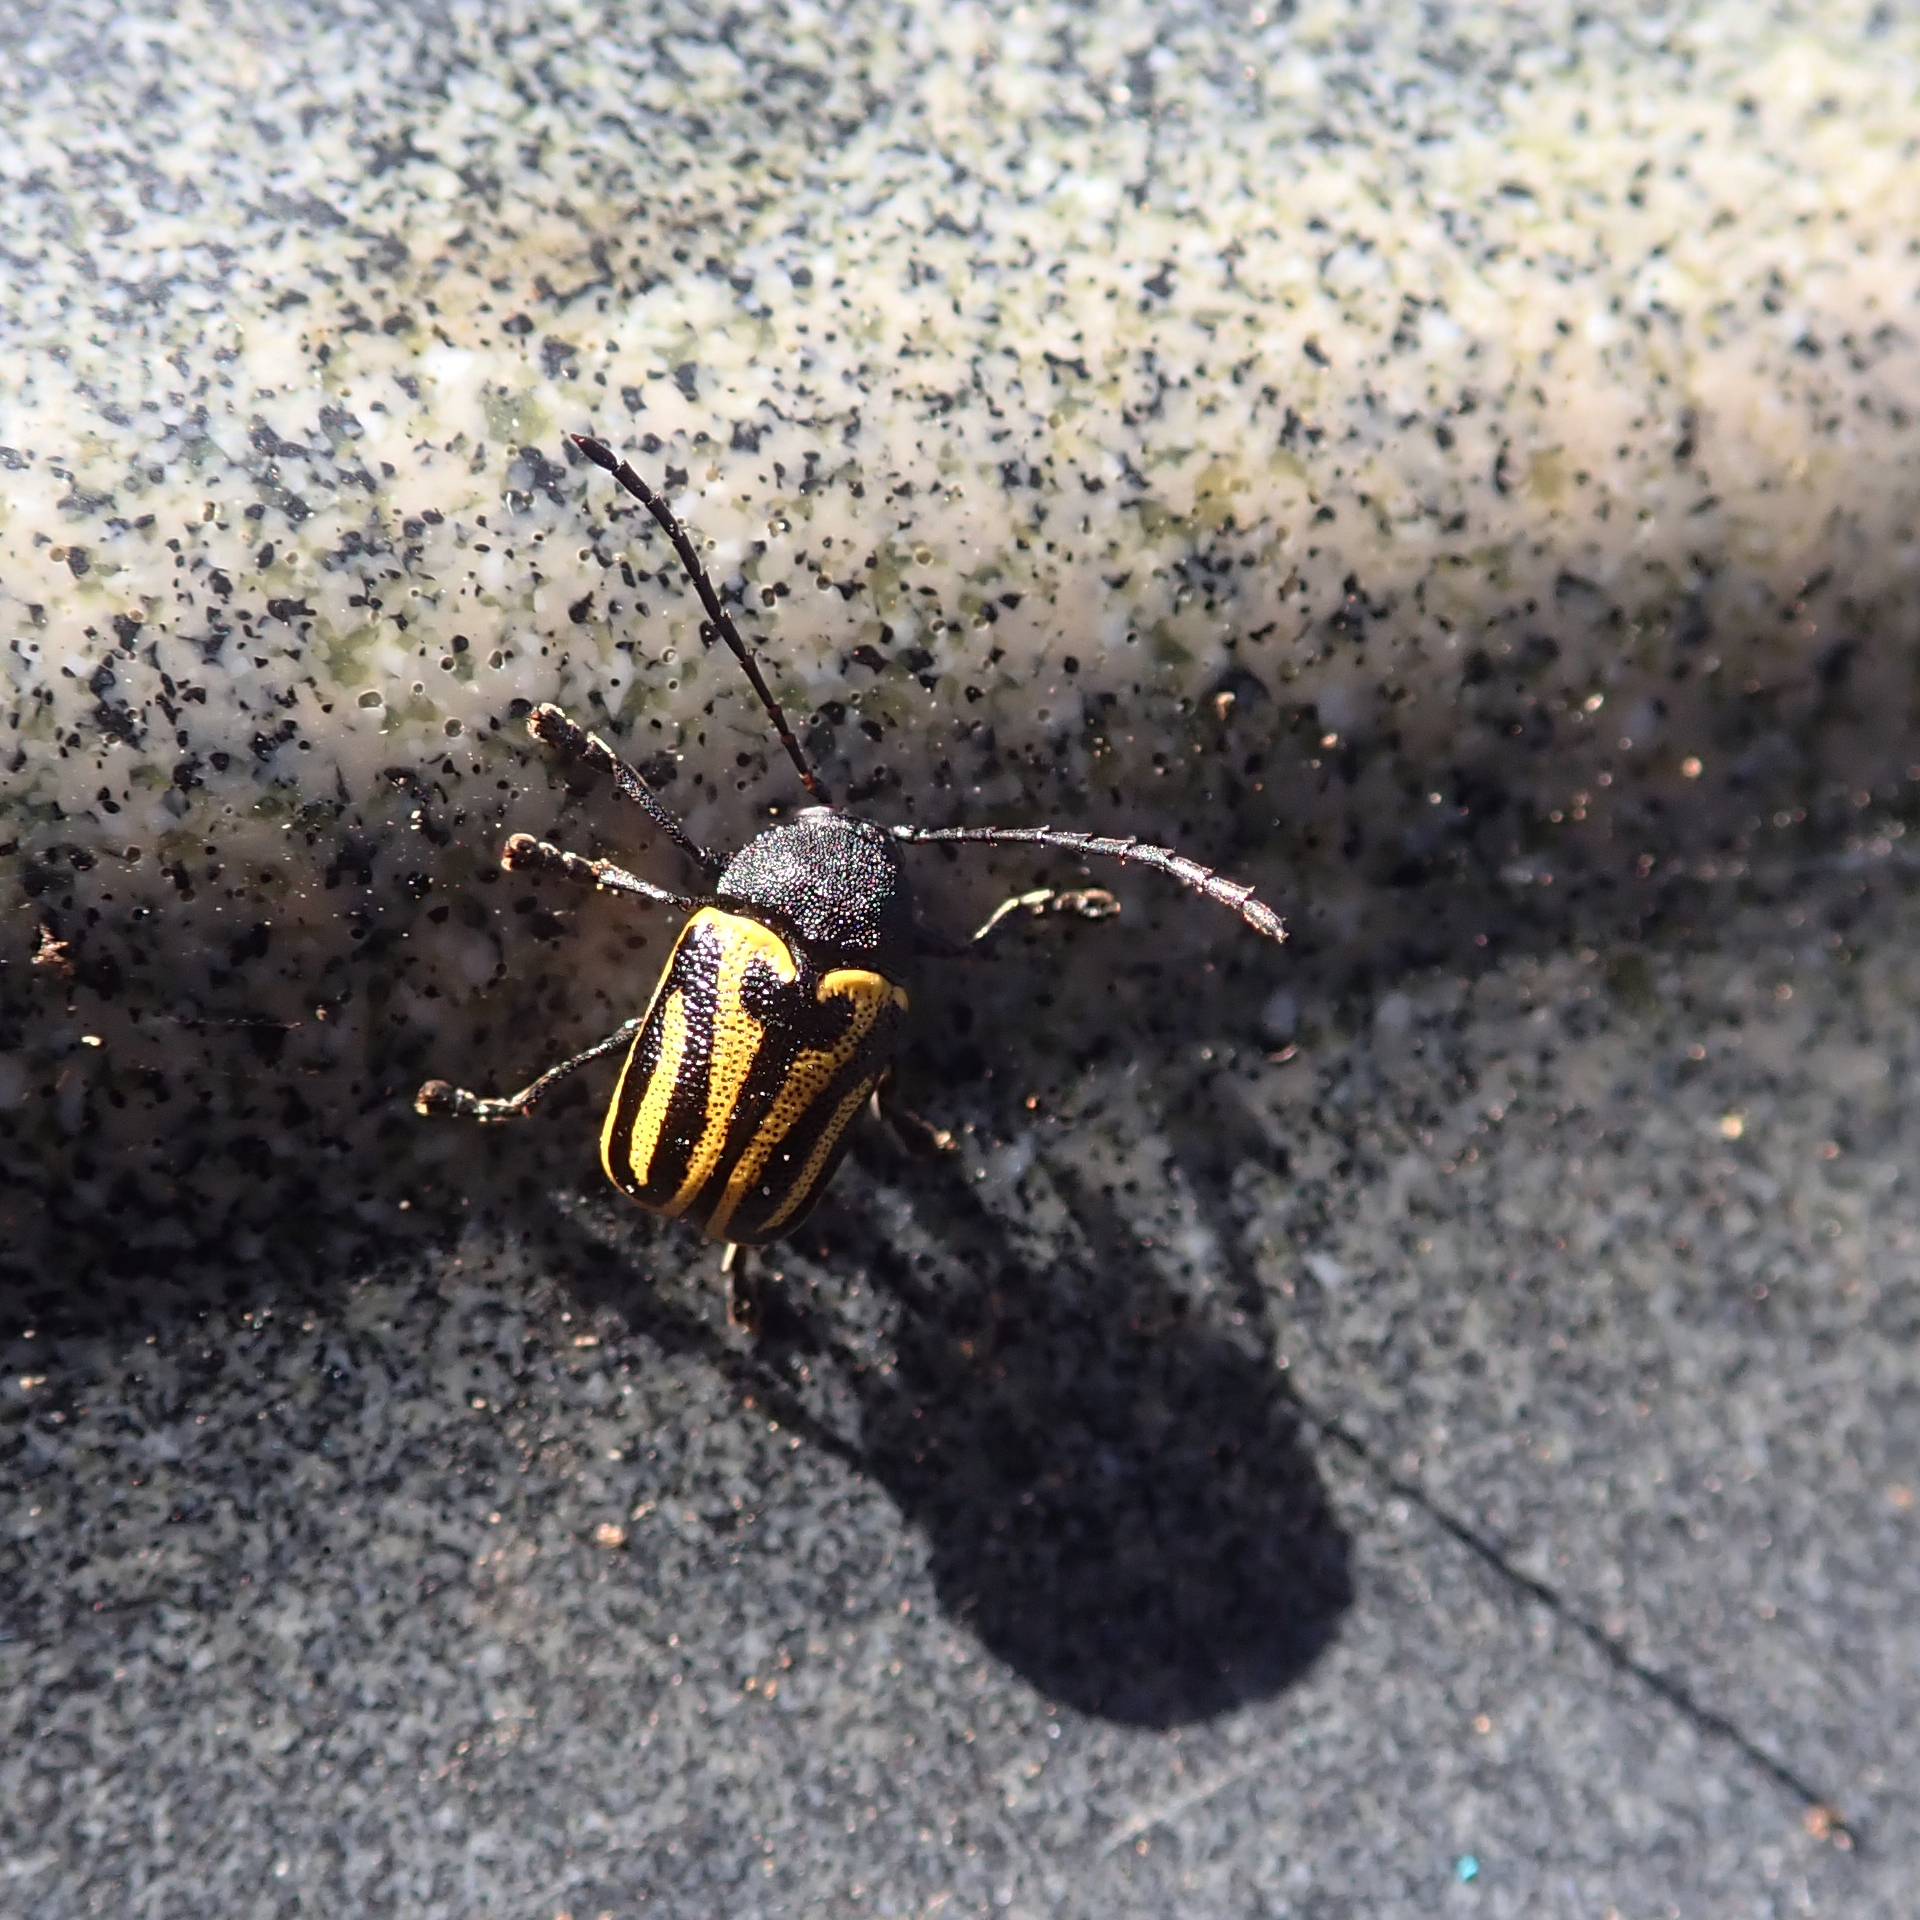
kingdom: Animalia
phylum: Arthropoda
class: Insecta
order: Coleoptera
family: Chrysomelidae
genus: Cadmus
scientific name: Cadmus
